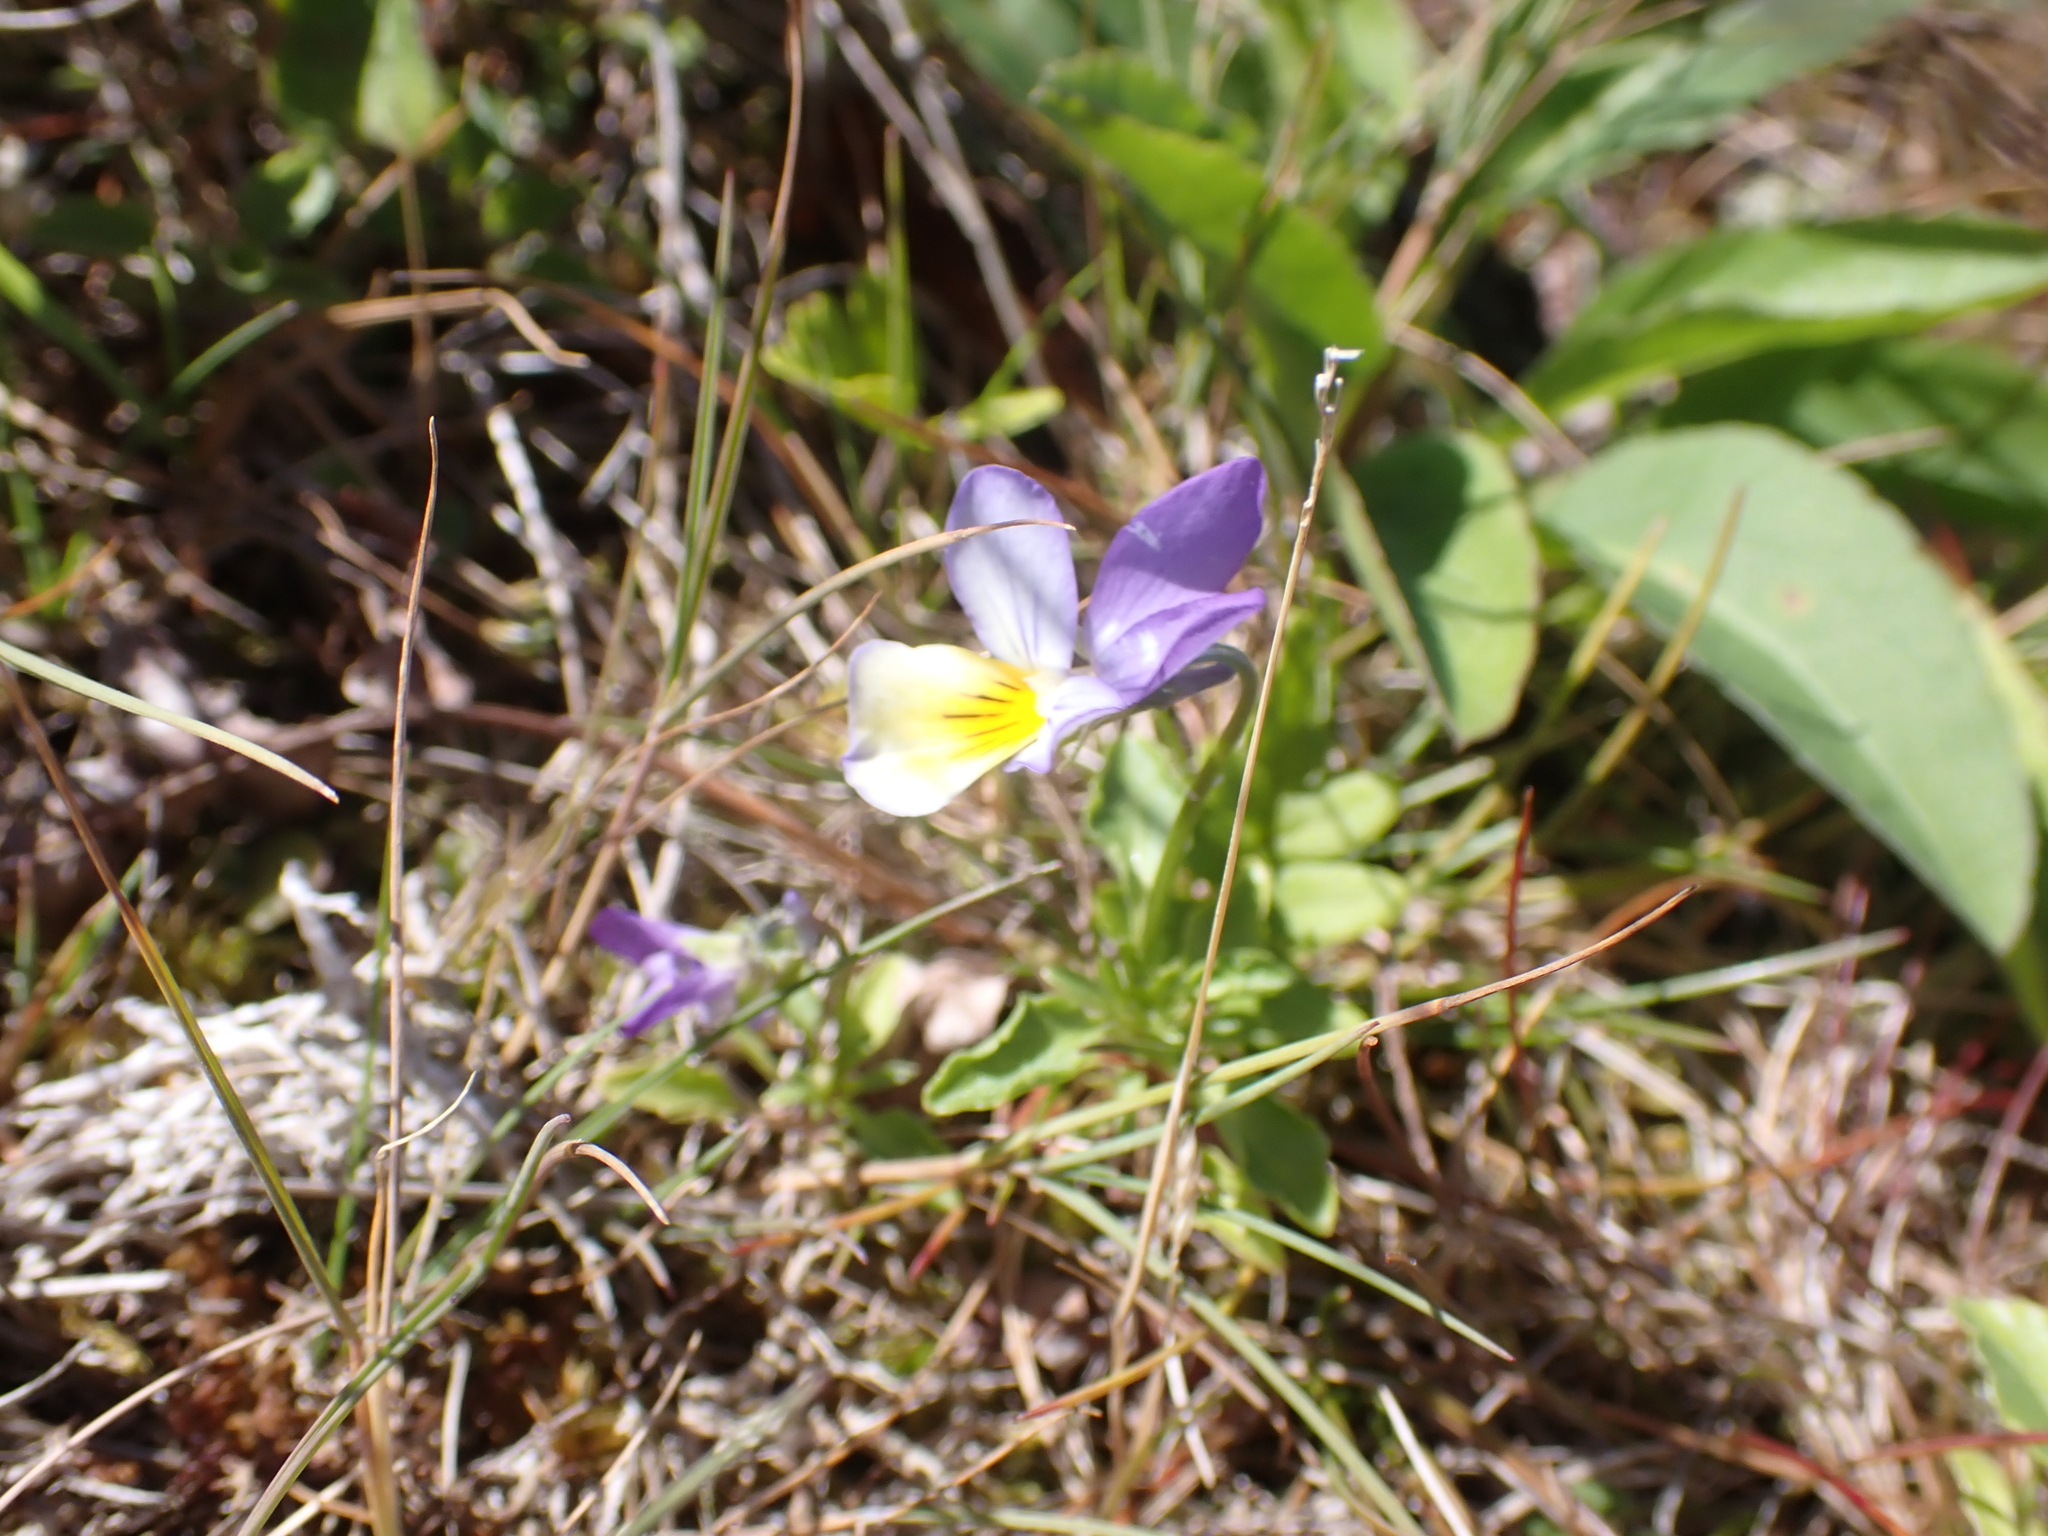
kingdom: Plantae
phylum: Tracheophyta
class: Magnoliopsida
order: Malpighiales
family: Violaceae
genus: Viola
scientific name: Viola tricolor
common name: Pansy
